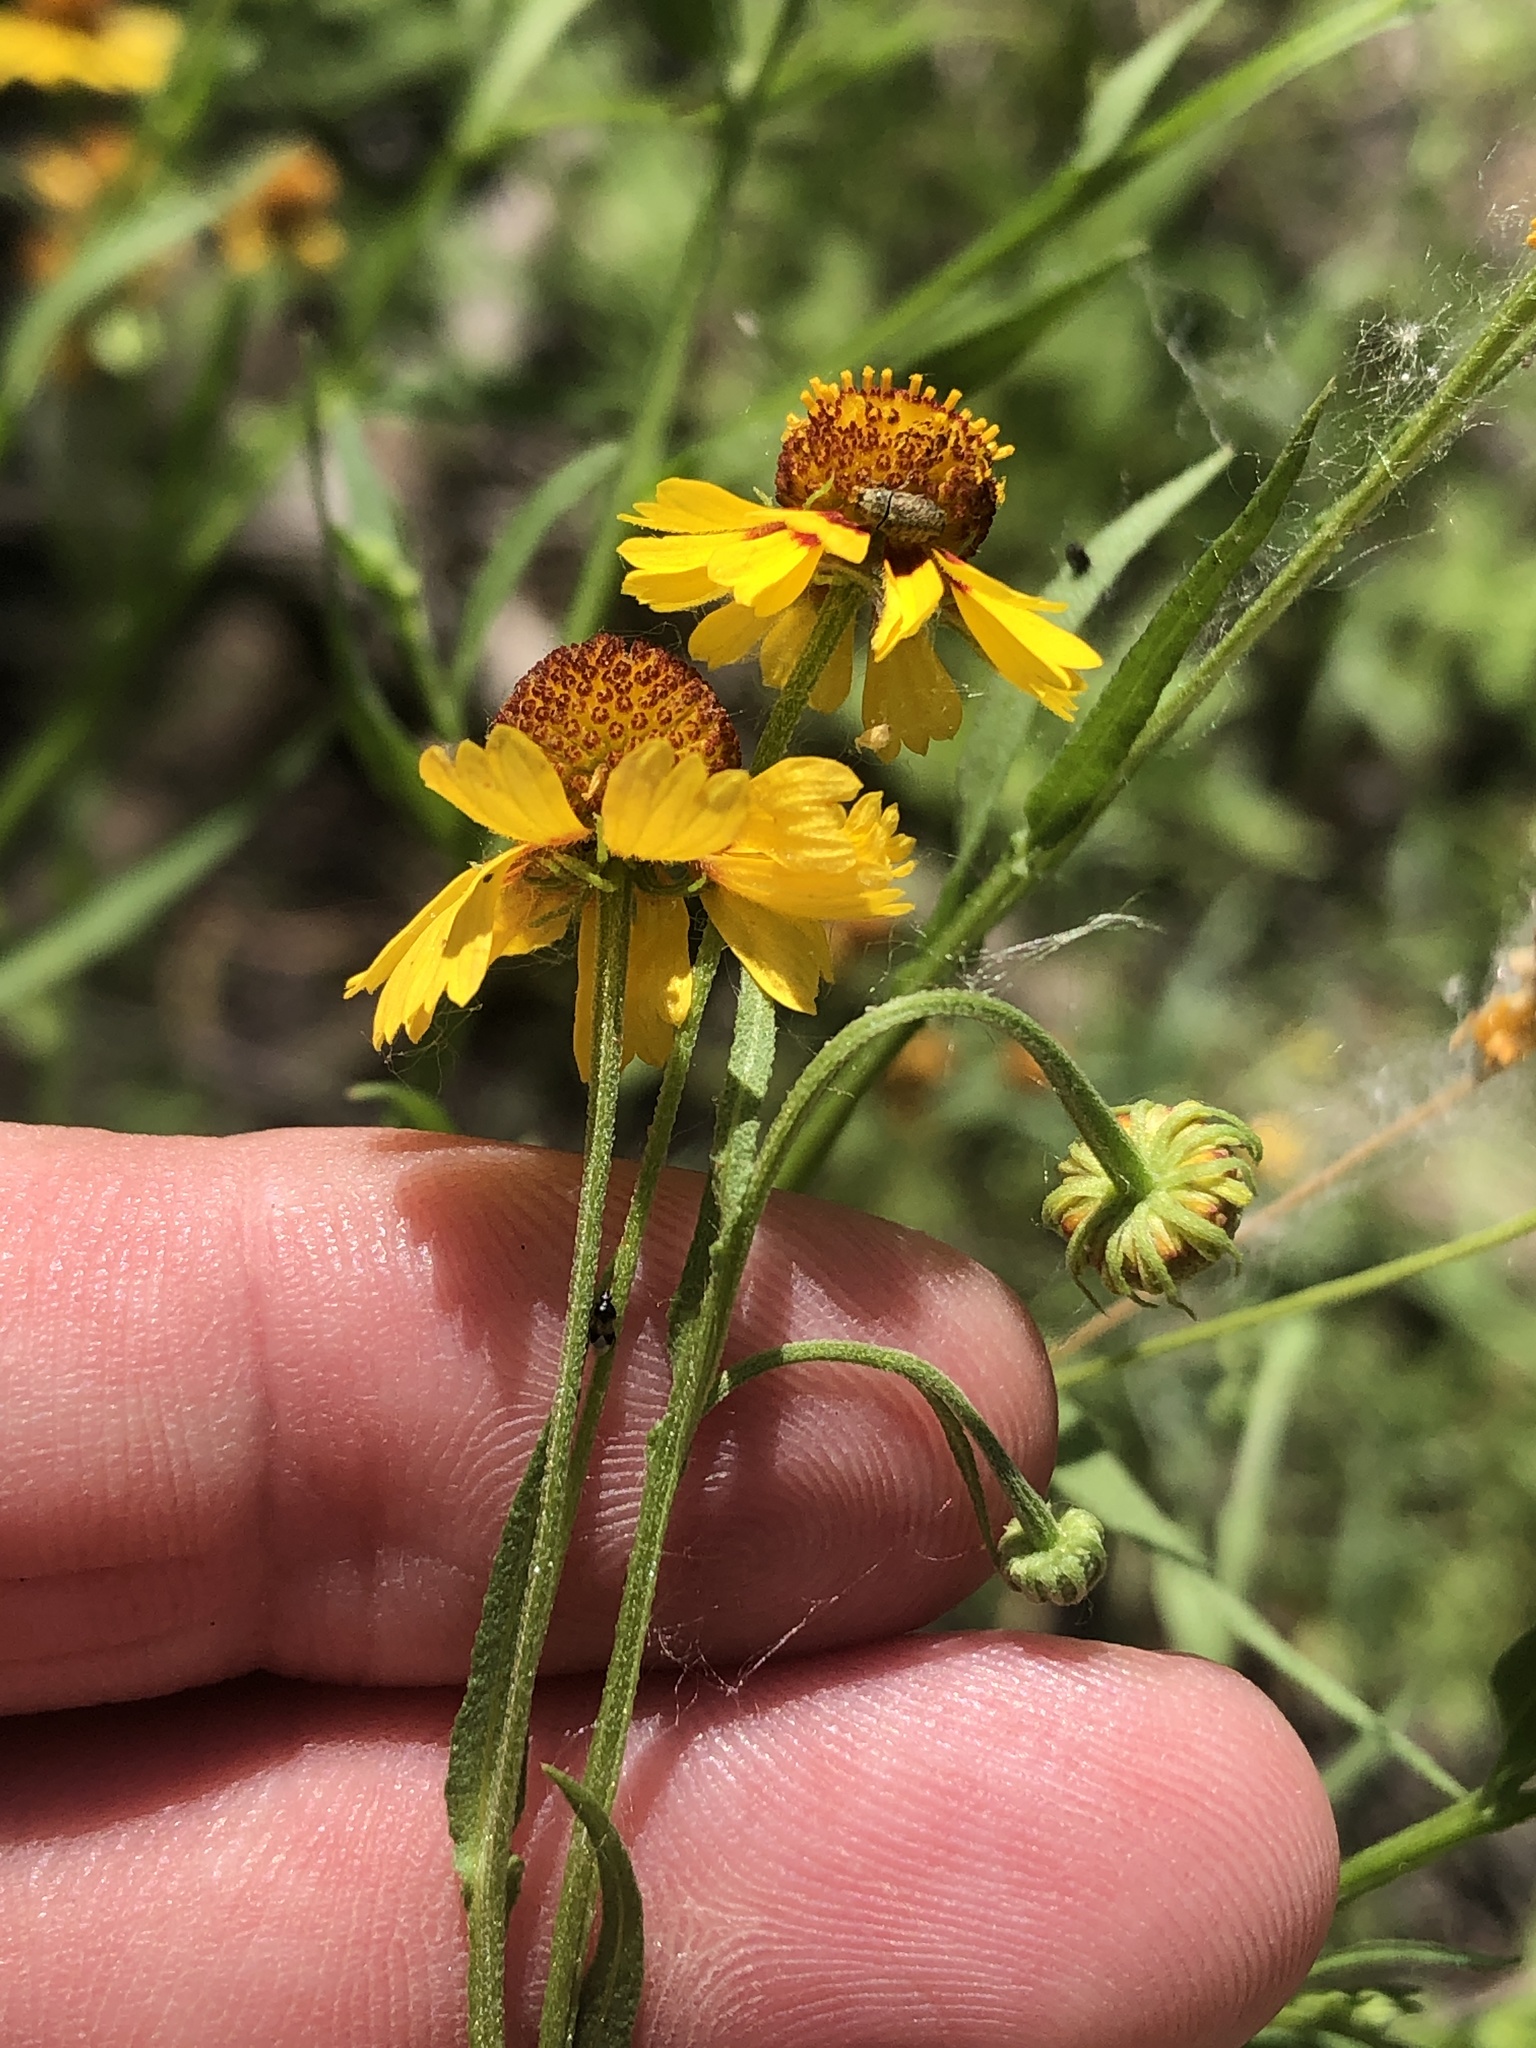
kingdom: Plantae
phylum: Tracheophyta
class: Magnoliopsida
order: Asterales
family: Asteraceae
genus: Helenium
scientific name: Helenium elegans
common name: Pretty sneezeweed
